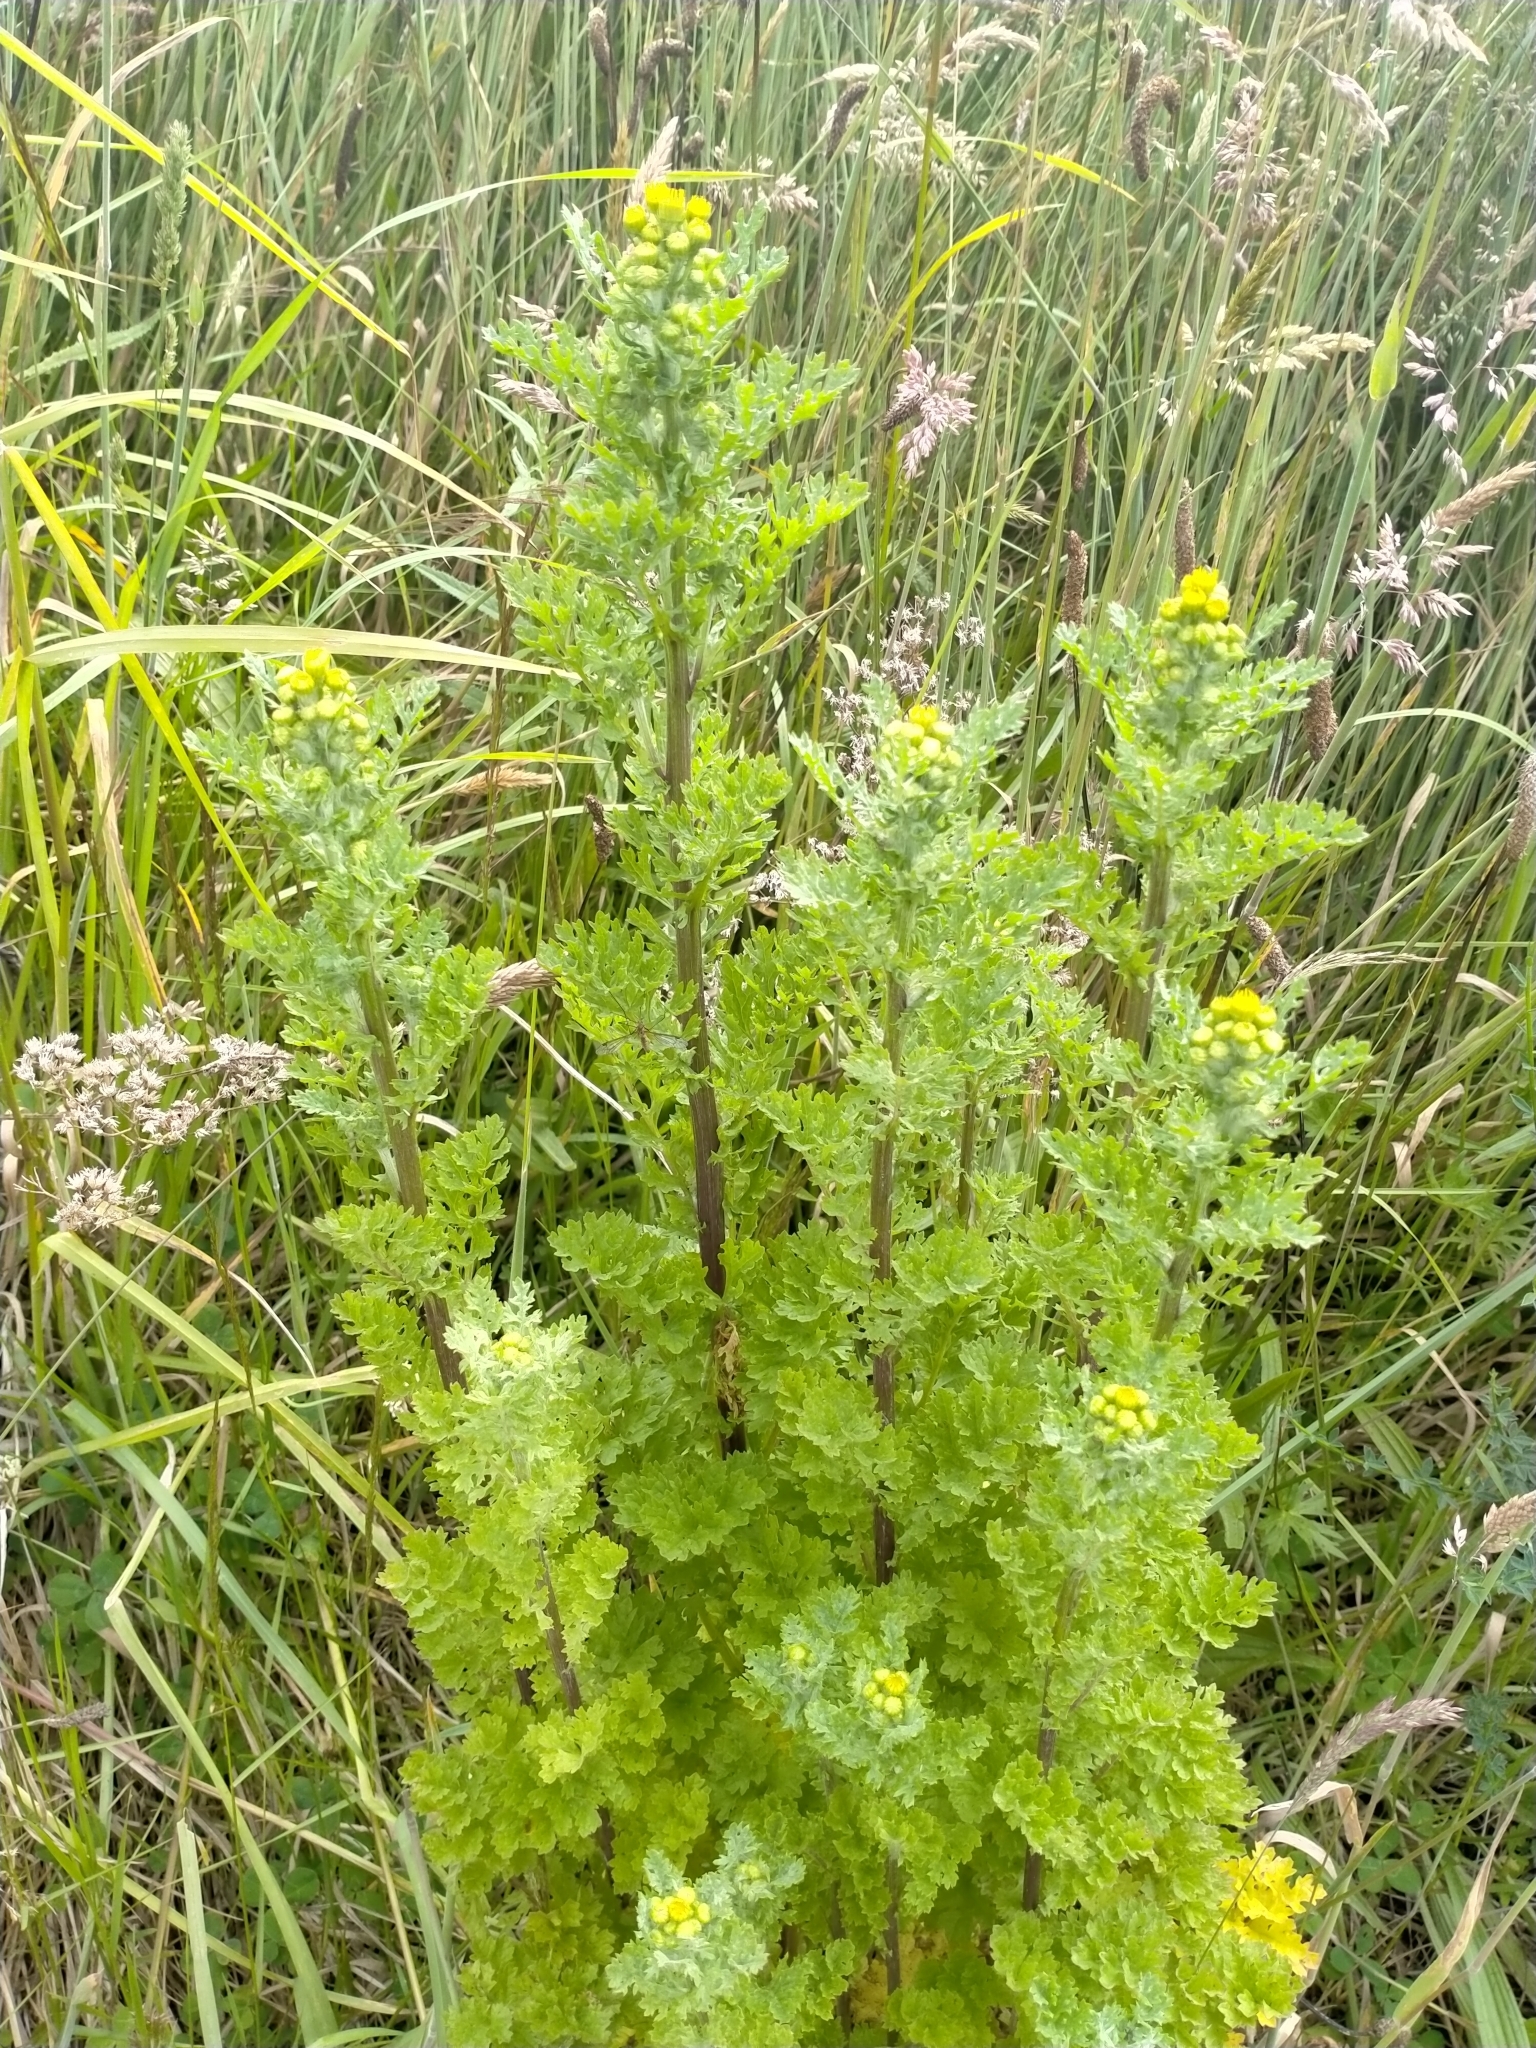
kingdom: Plantae
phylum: Tracheophyta
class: Magnoliopsida
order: Asterales
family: Asteraceae
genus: Jacobaea
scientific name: Jacobaea vulgaris
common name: Stinking willie
